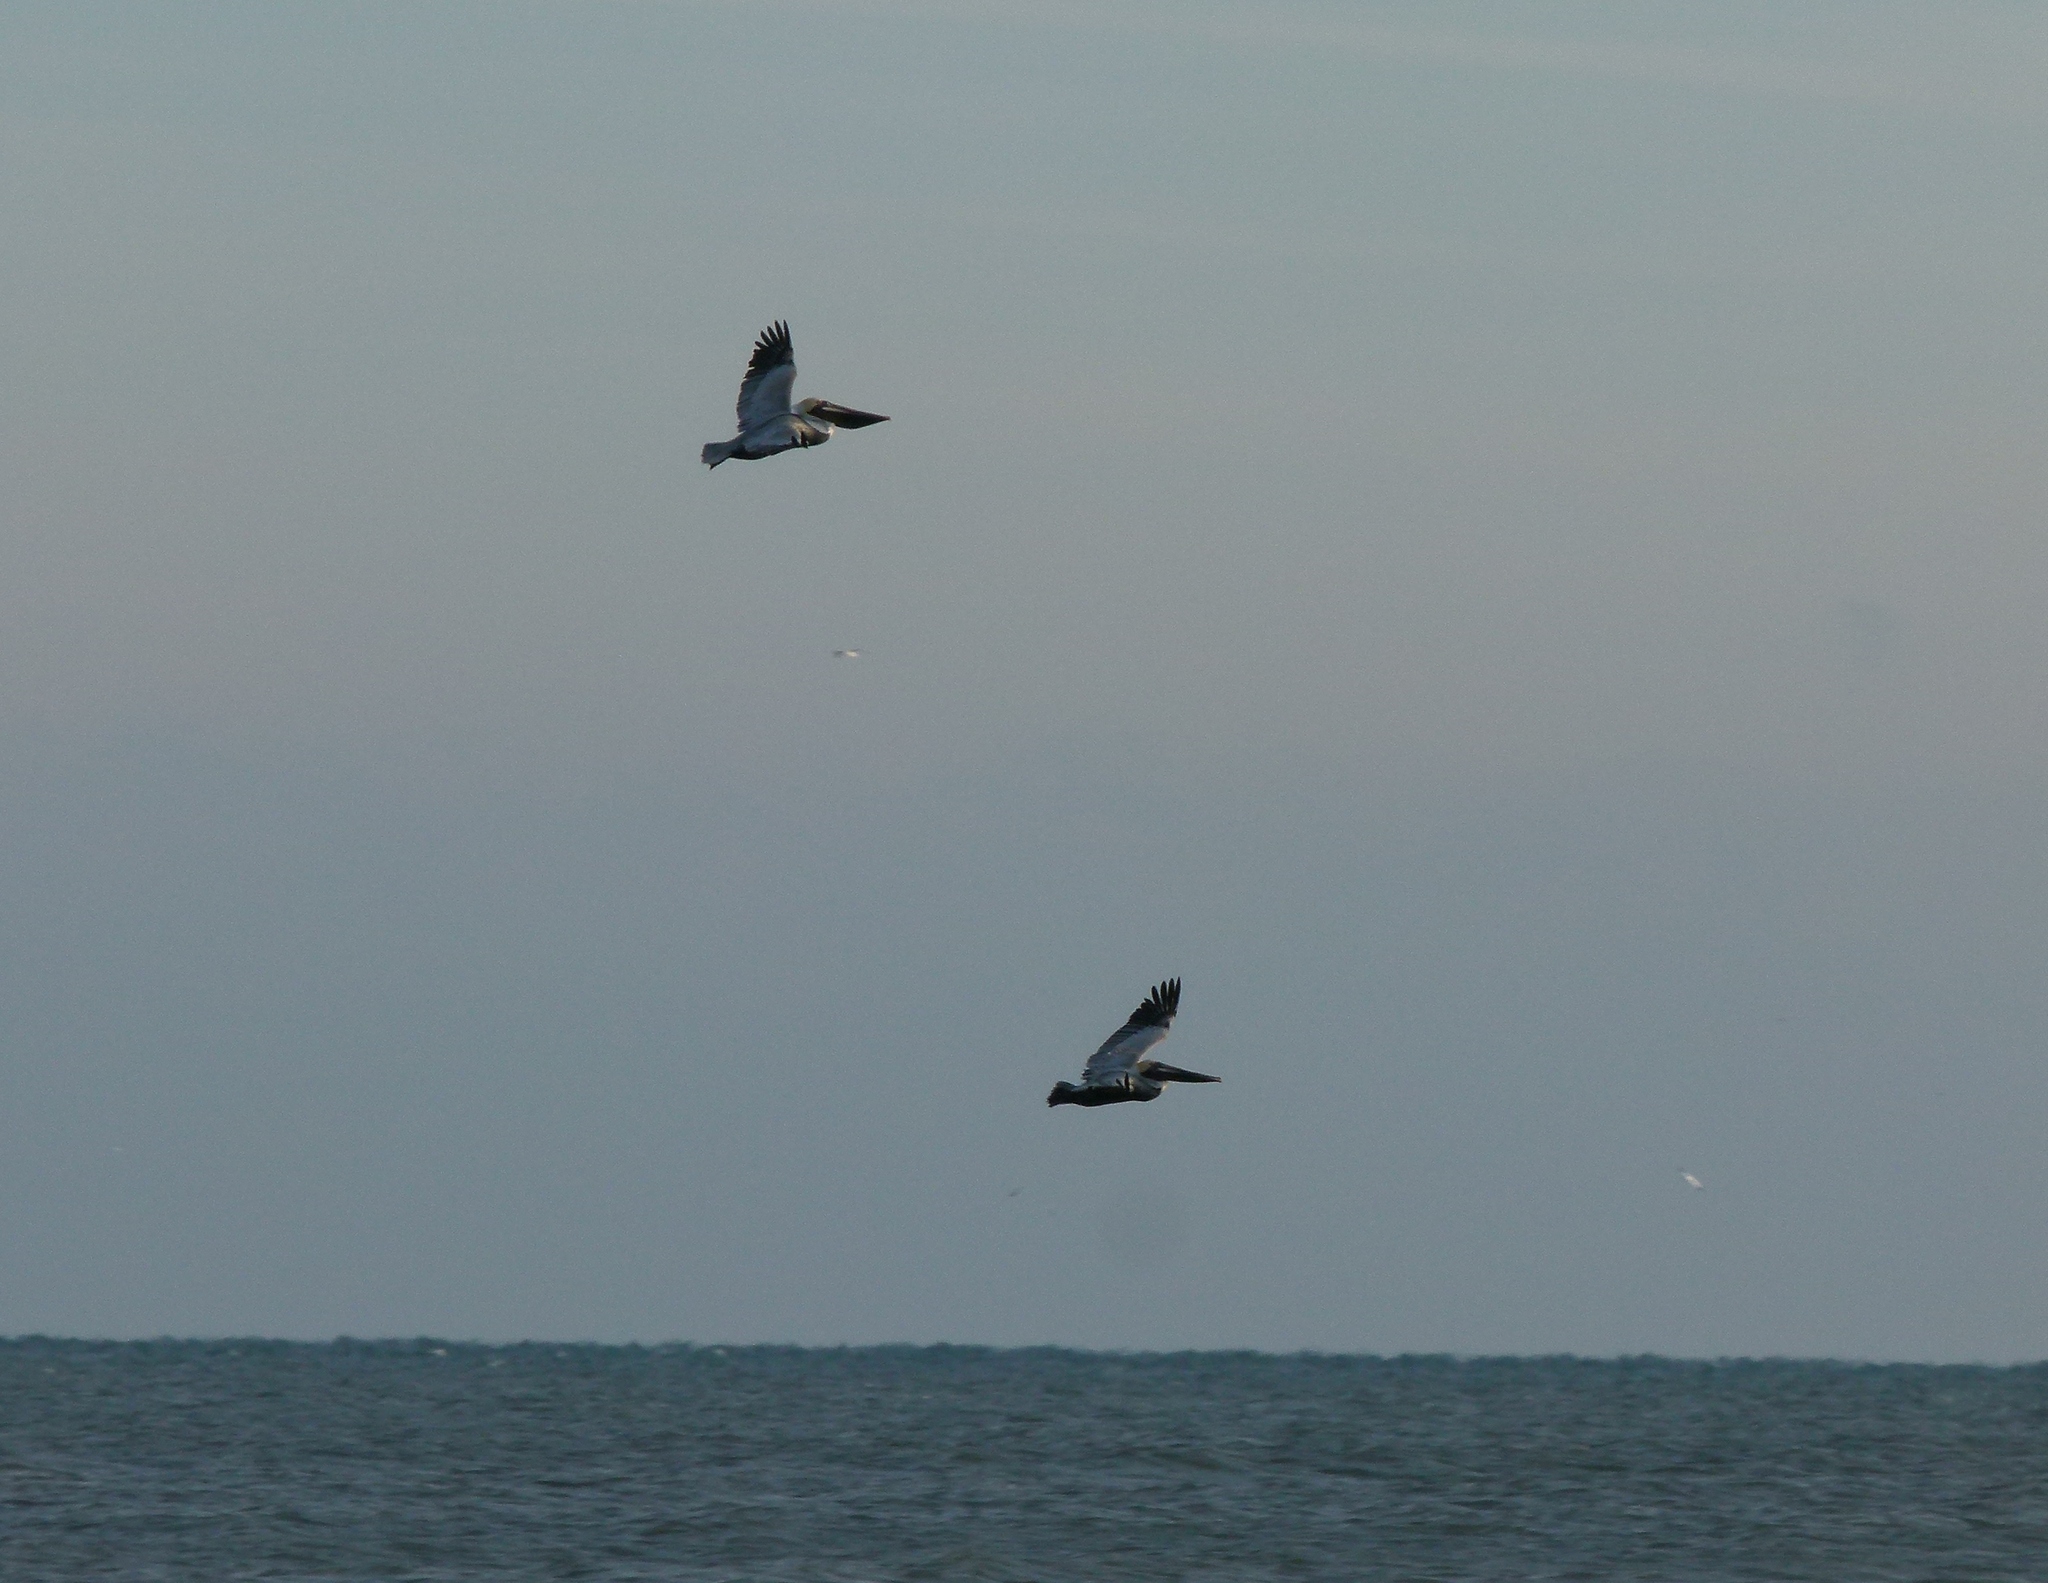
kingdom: Animalia
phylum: Chordata
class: Aves
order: Pelecaniformes
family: Pelecanidae
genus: Pelecanus
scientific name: Pelecanus occidentalis
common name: Brown pelican
